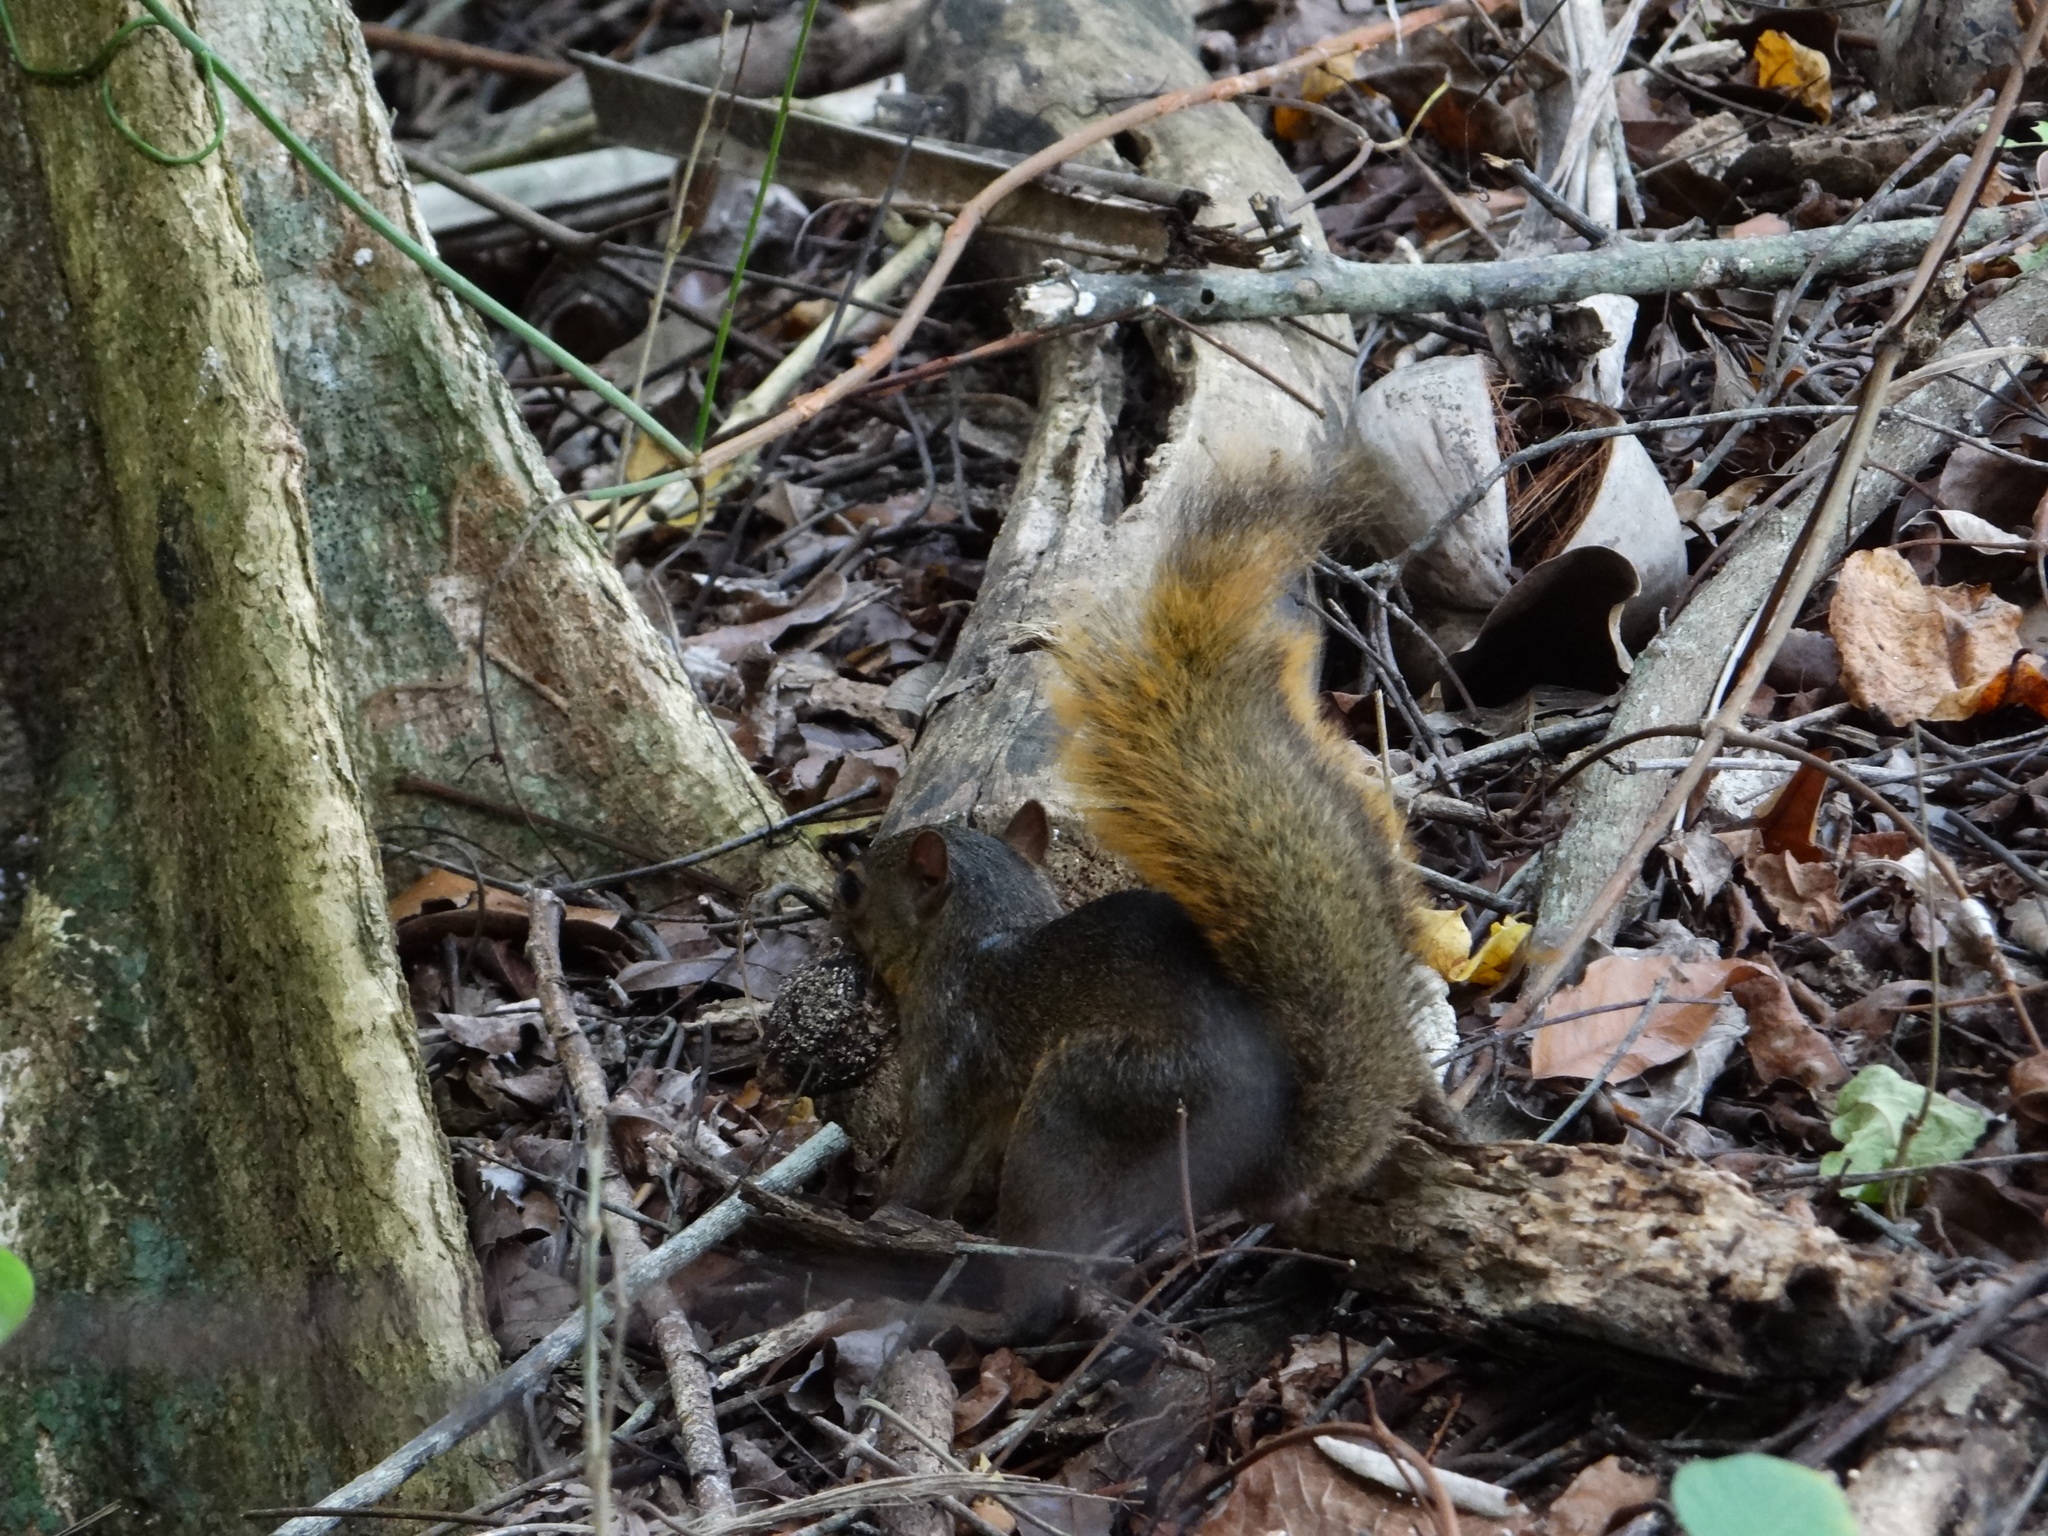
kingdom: Animalia
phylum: Chordata
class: Mammalia
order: Rodentia
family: Sciuridae
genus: Sciurus
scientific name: Sciurus granatensis
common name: Red-tailed squirrel
